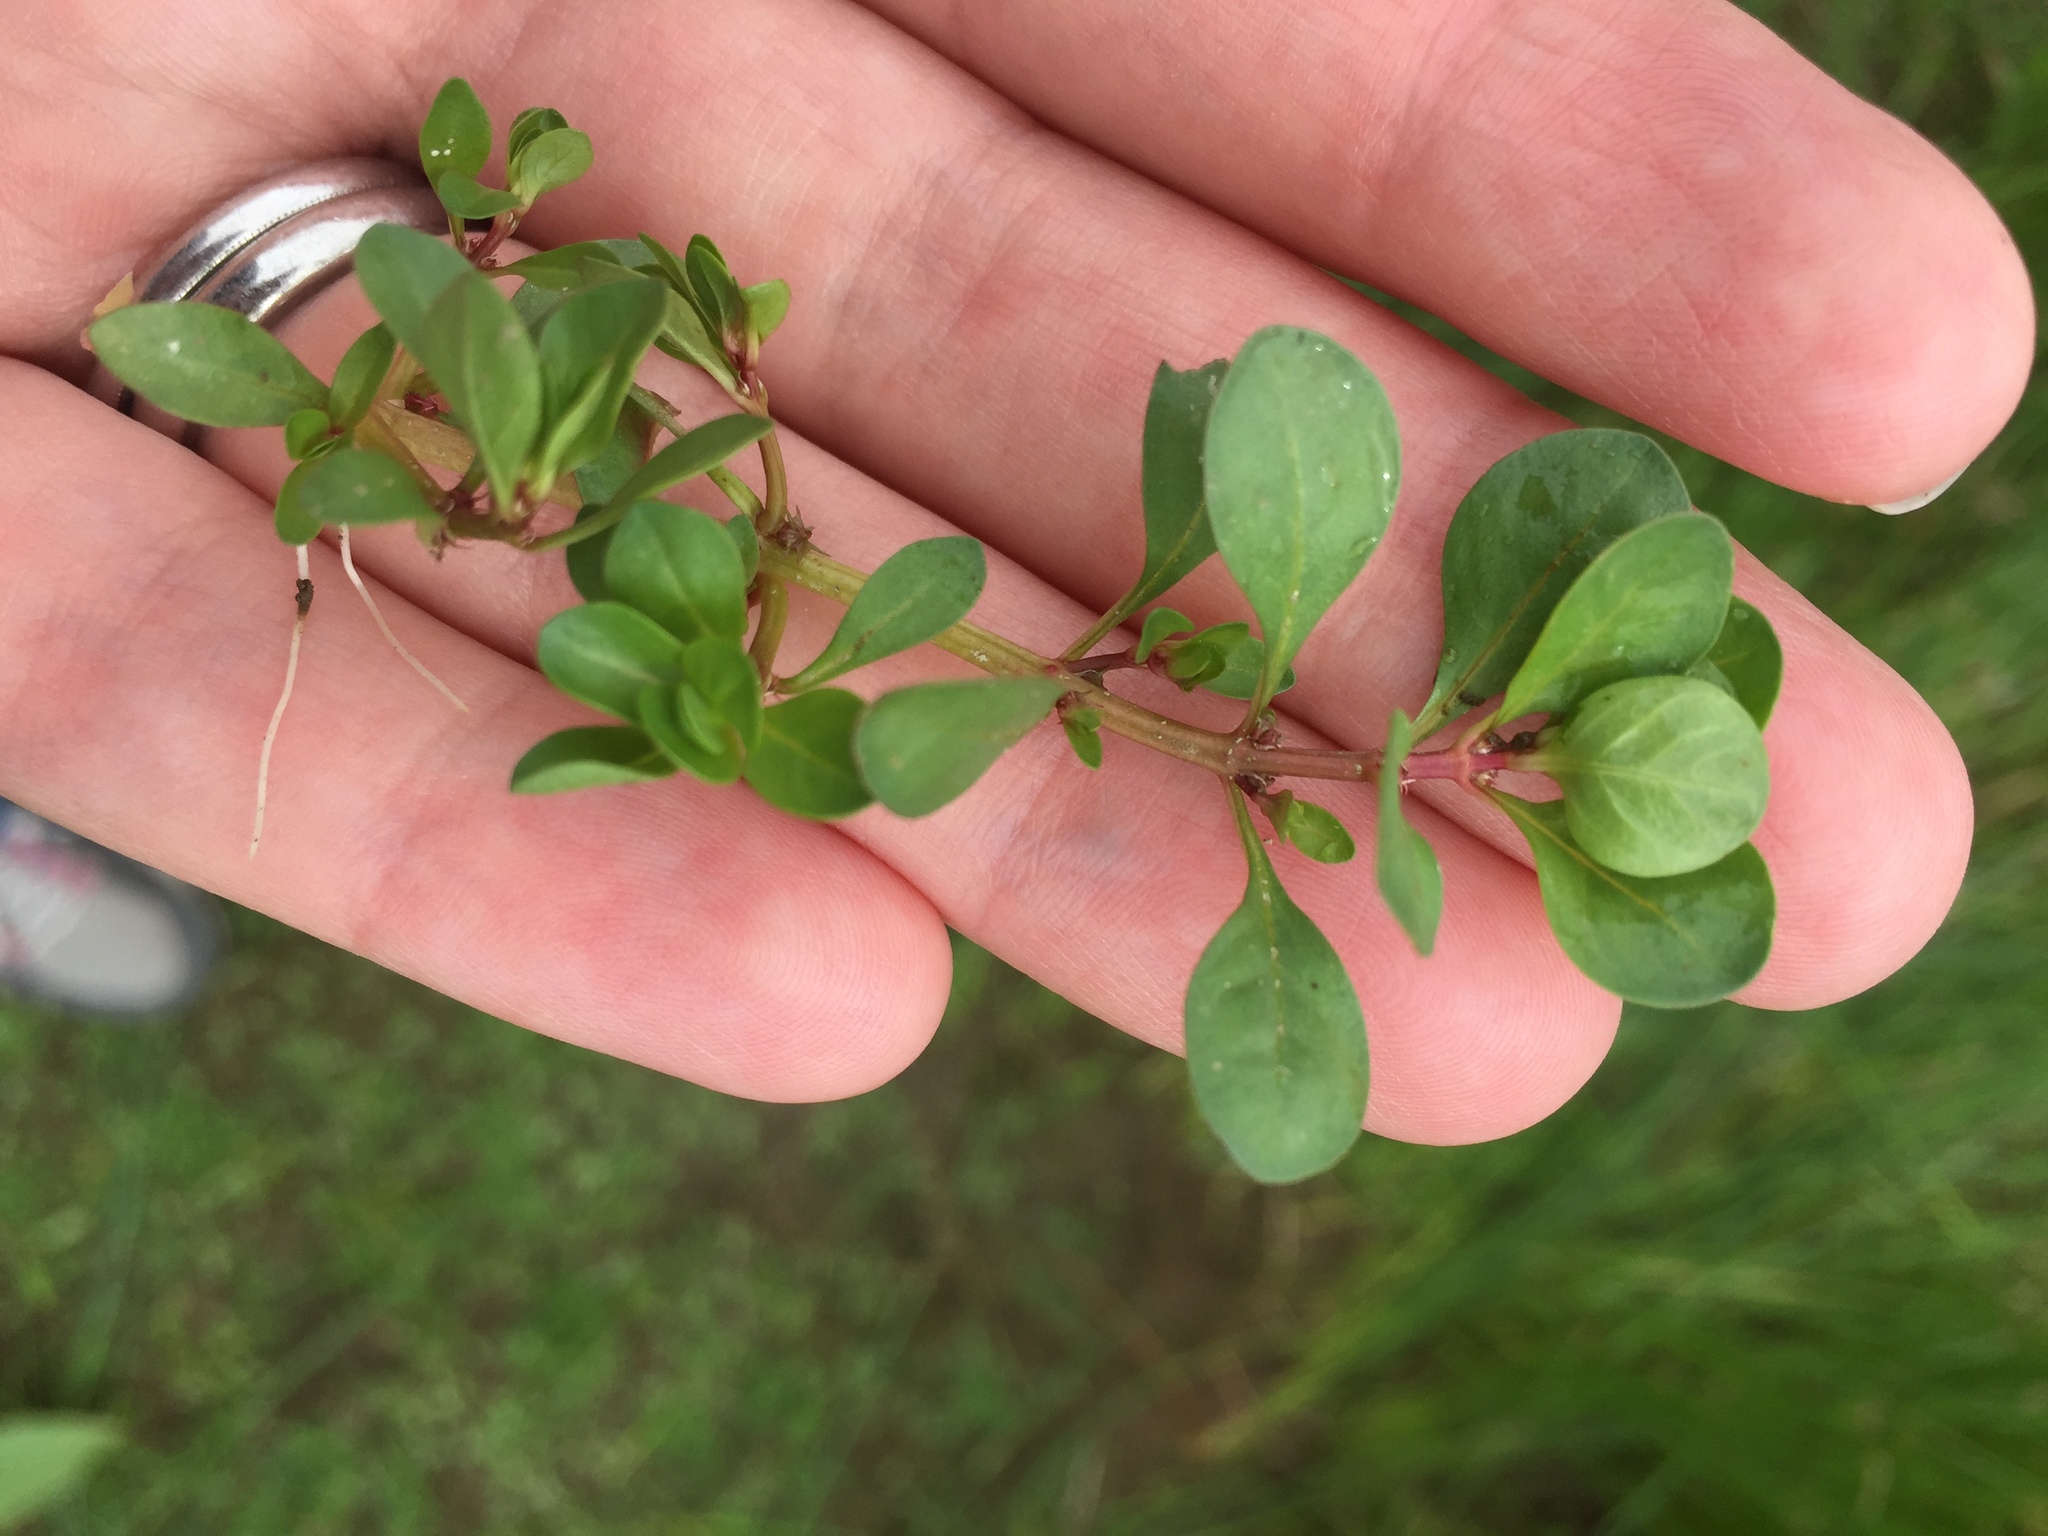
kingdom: Plantae
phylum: Tracheophyta
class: Magnoliopsida
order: Myrtales
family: Lythraceae
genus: Lythrum
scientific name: Lythrum portula
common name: Water purslane
